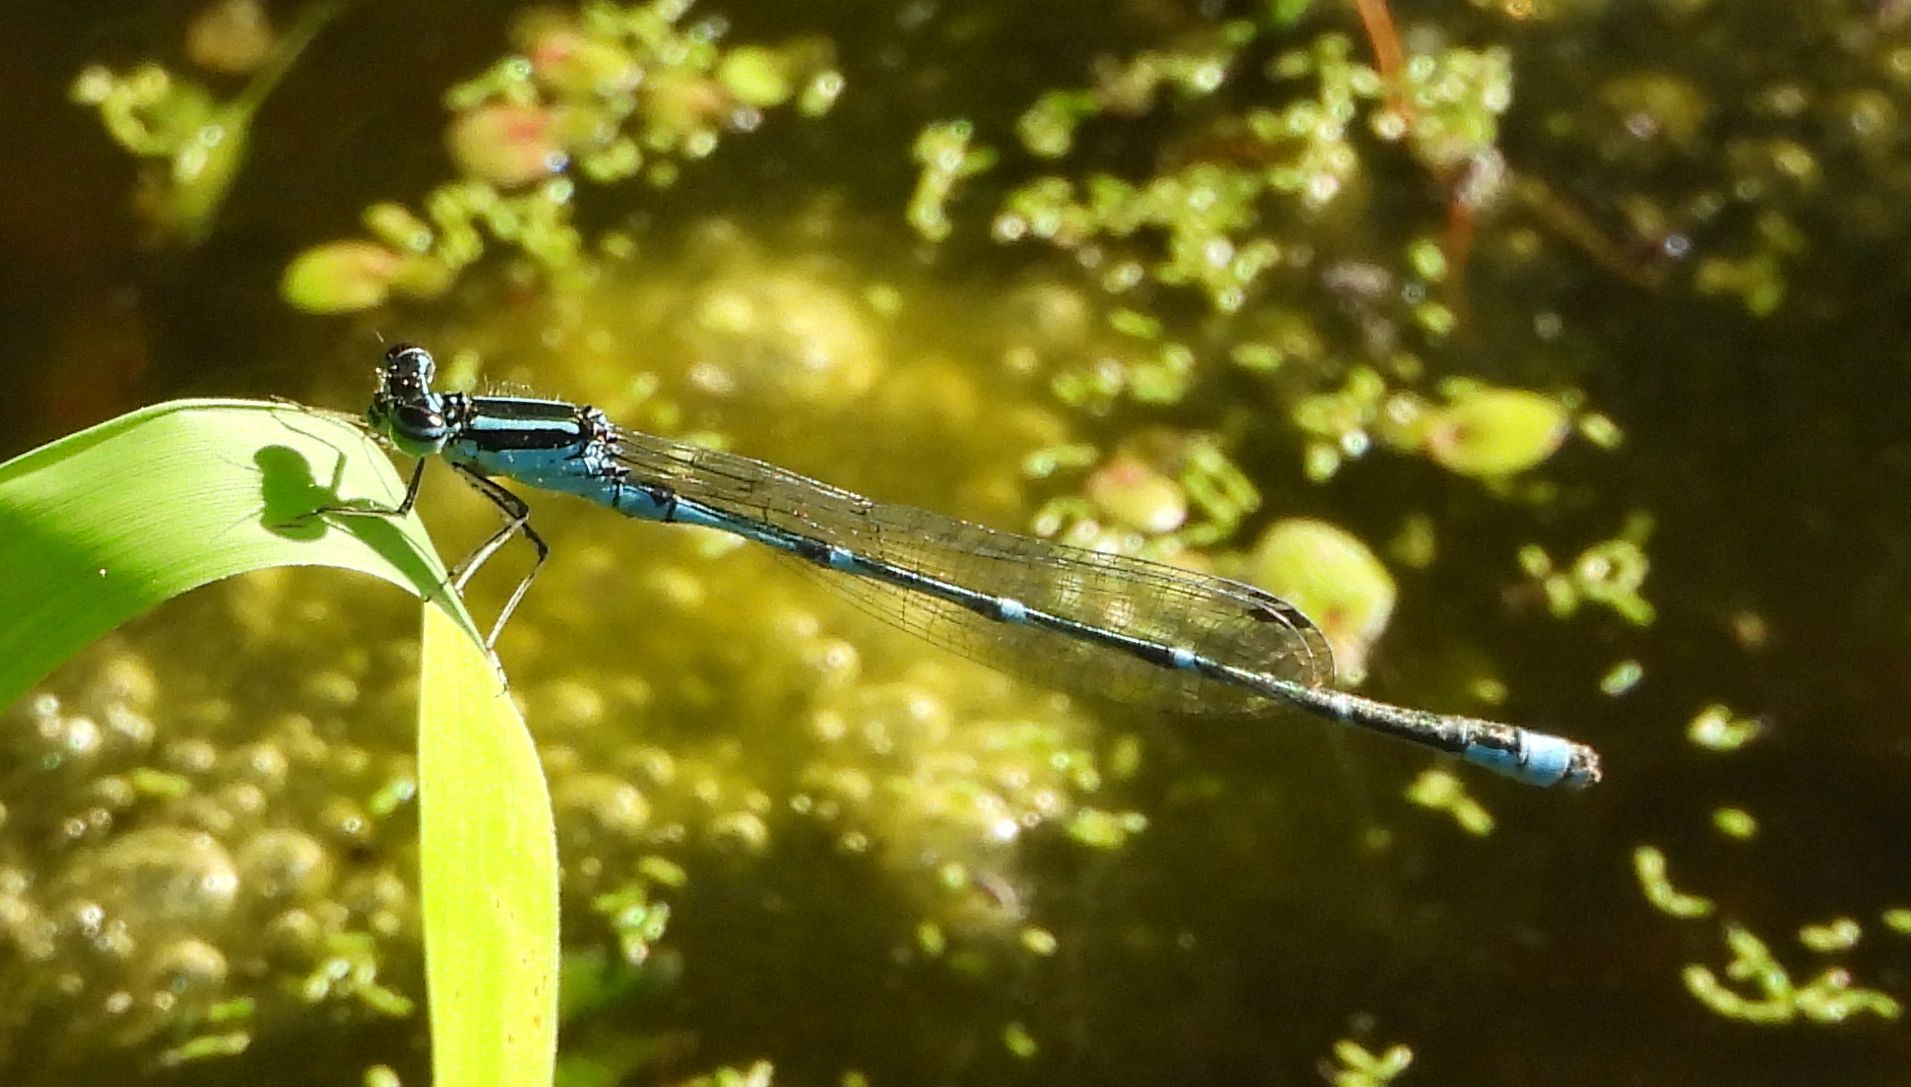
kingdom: Animalia
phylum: Arthropoda
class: Insecta
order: Odonata
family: Coenagrionidae
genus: Enallagma
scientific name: Enallagma exsulans
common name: Stream bluet
